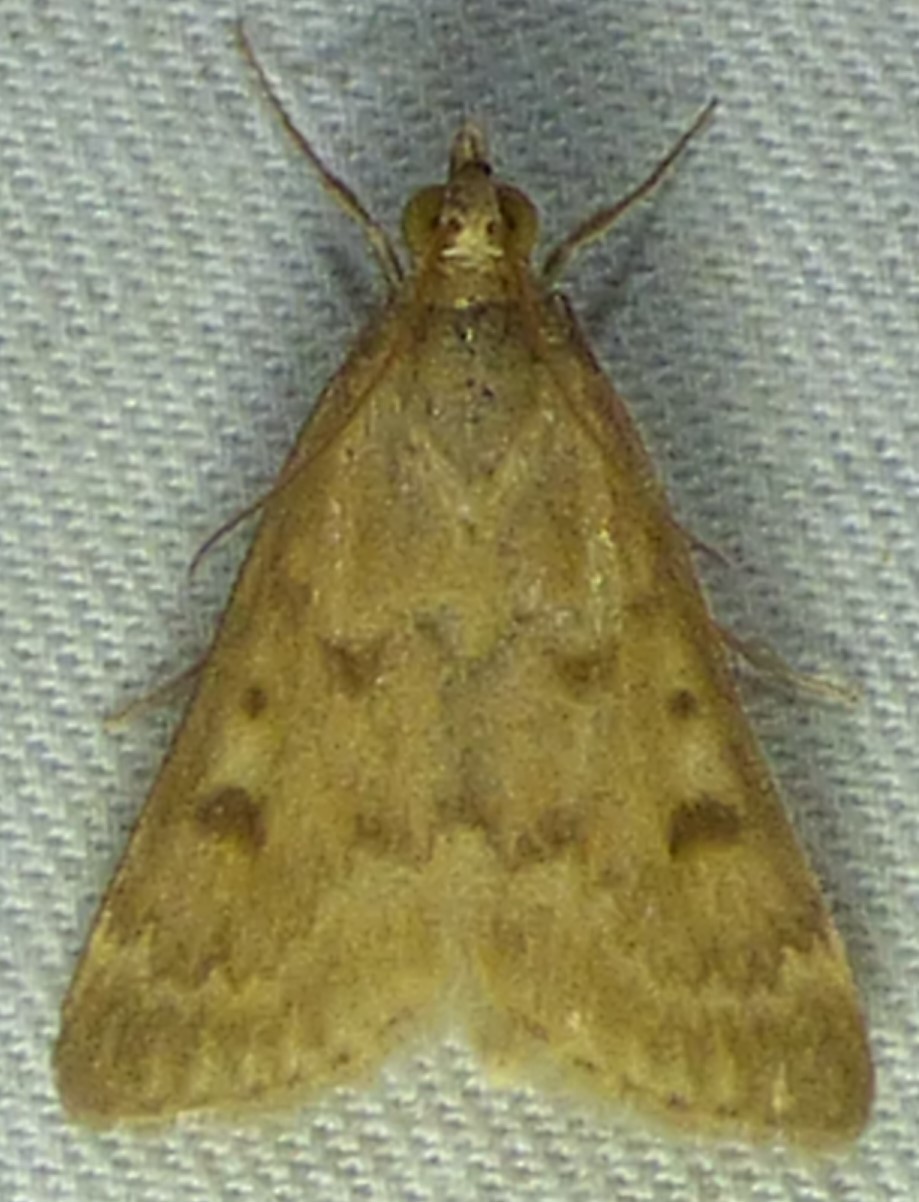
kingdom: Animalia
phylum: Arthropoda
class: Insecta
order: Lepidoptera
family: Crambidae
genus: Achyra
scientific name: Achyra rantalis
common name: Garden webworm
